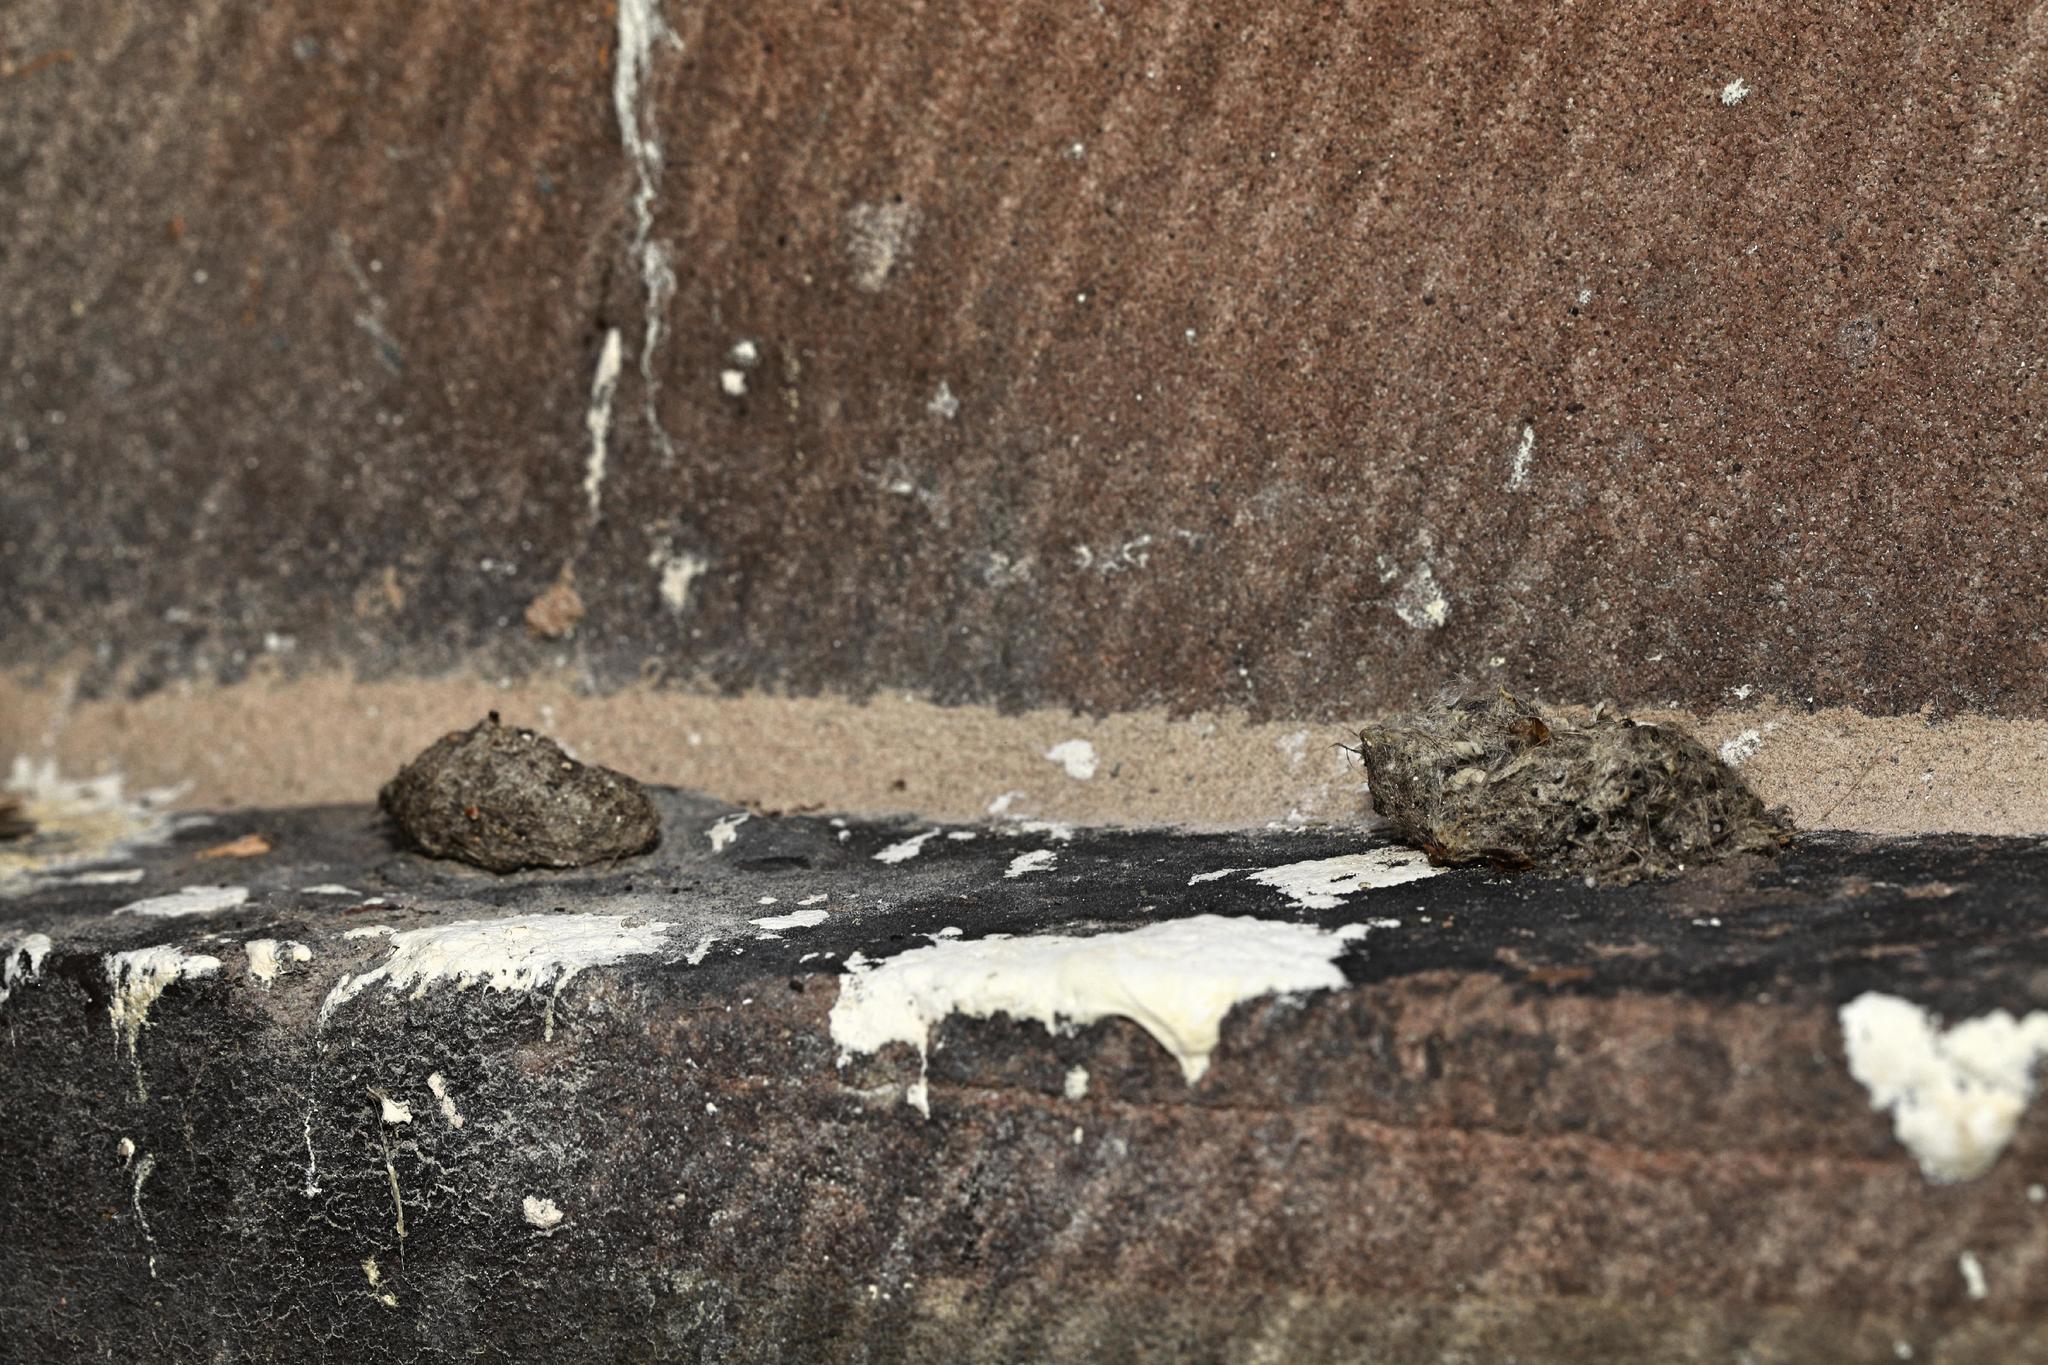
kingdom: Animalia
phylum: Chordata
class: Aves
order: Strigiformes
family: Strigidae
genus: Athene
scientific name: Athene noctua
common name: Little owl
